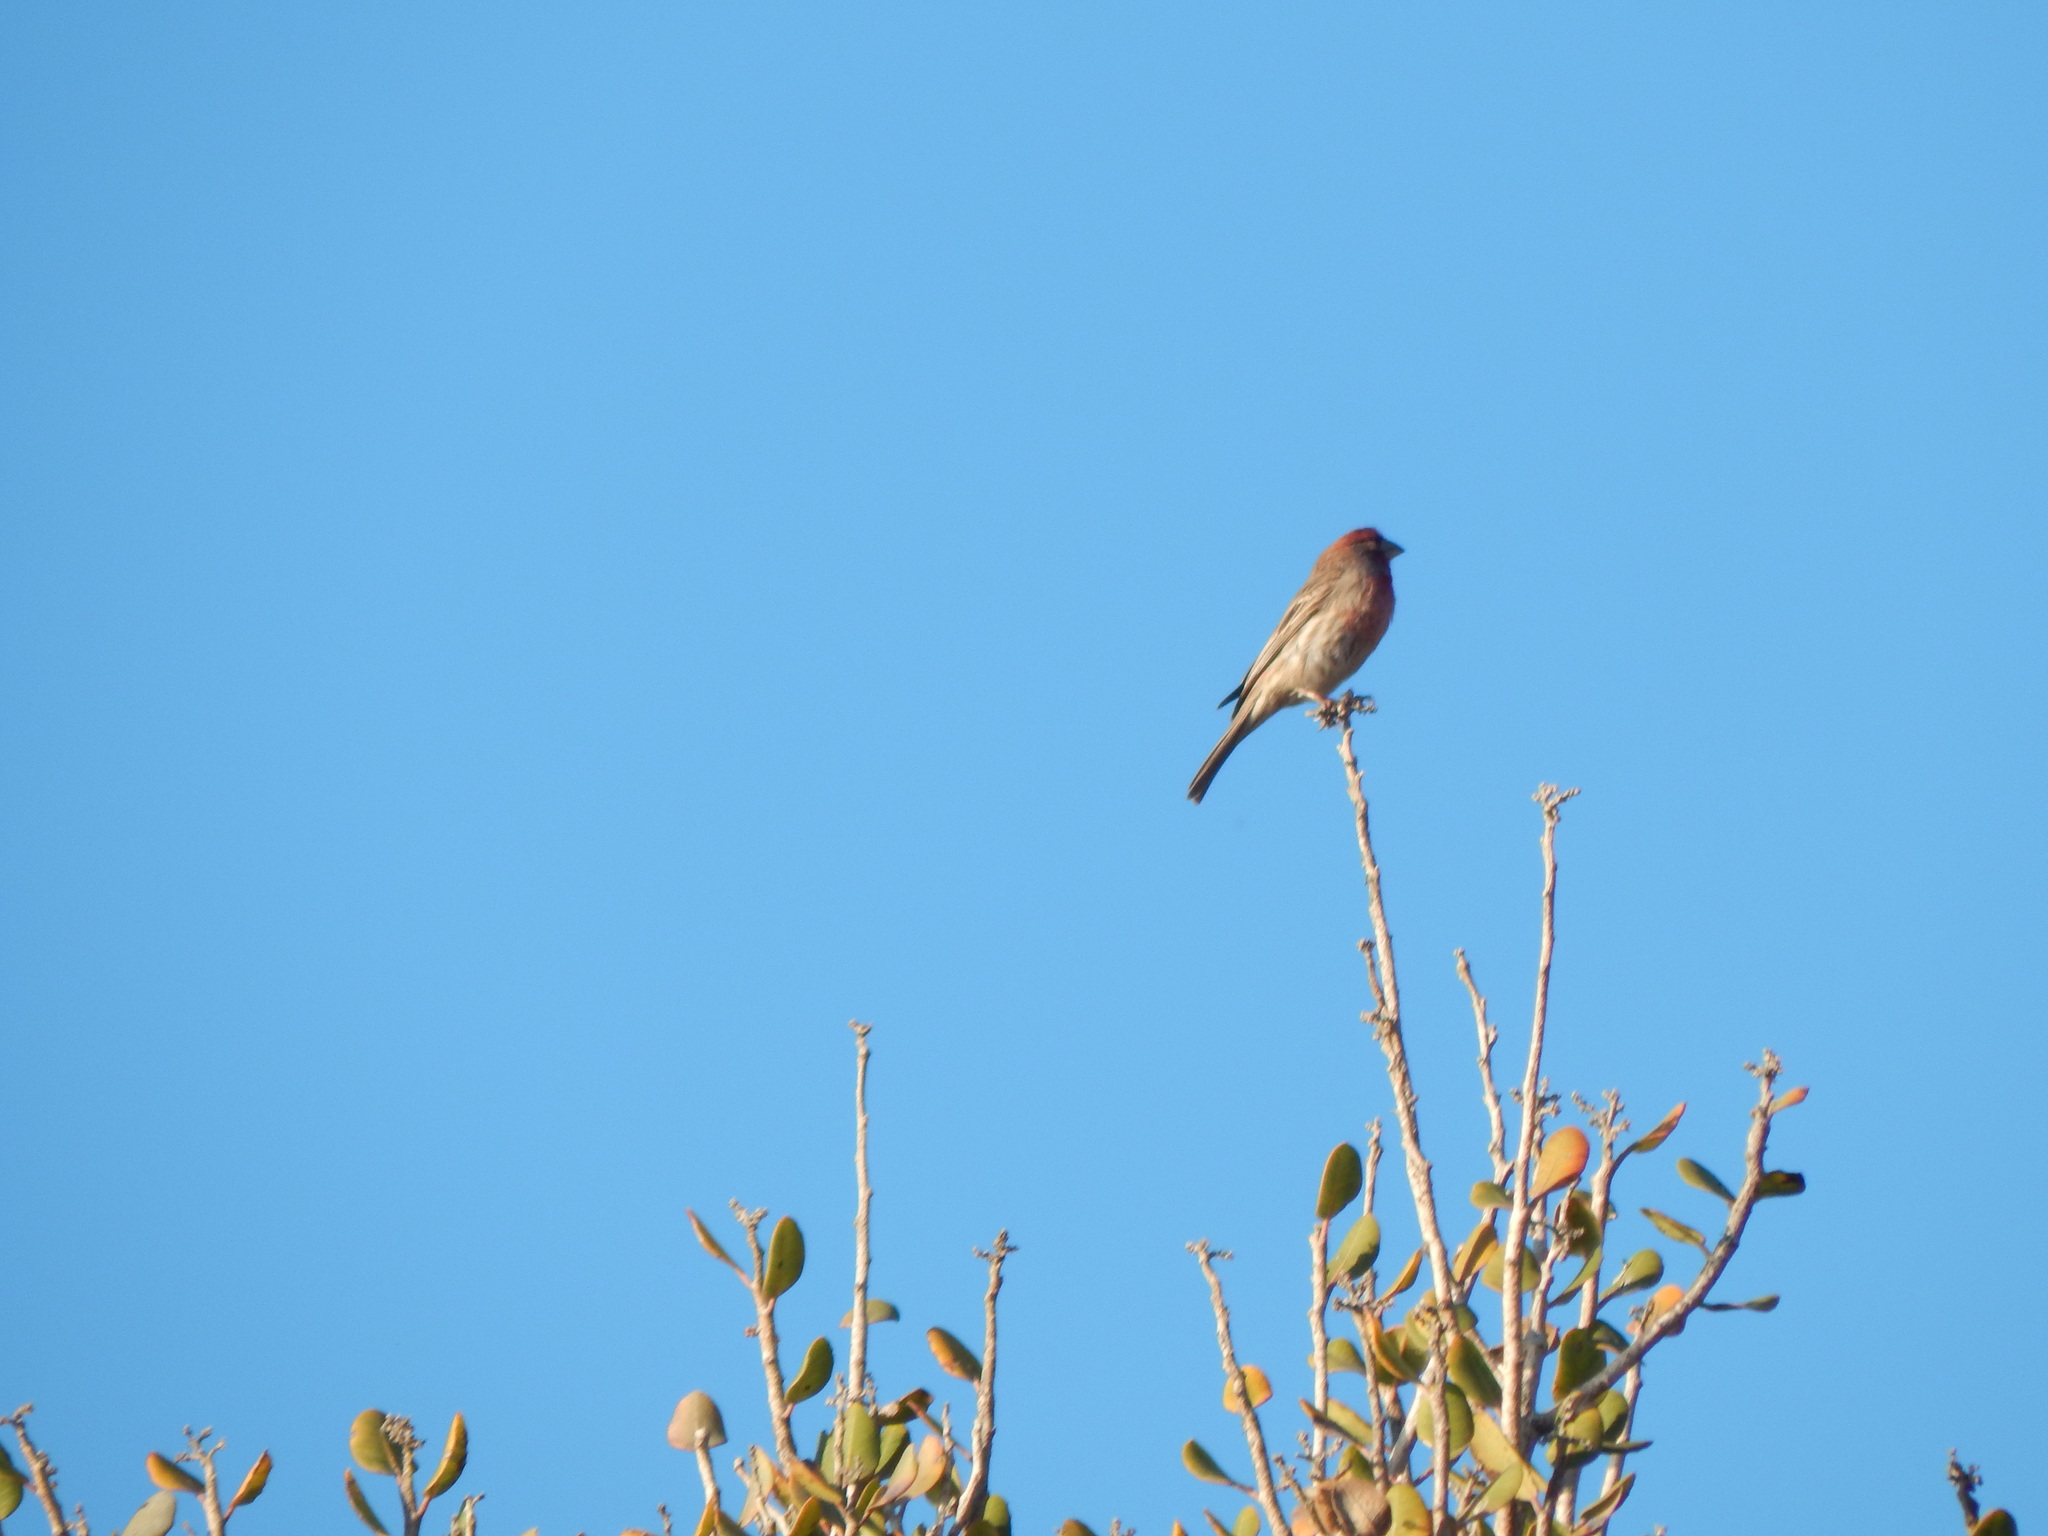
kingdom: Animalia
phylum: Chordata
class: Aves
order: Passeriformes
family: Fringillidae
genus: Haemorhous
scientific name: Haemorhous mexicanus
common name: House finch
